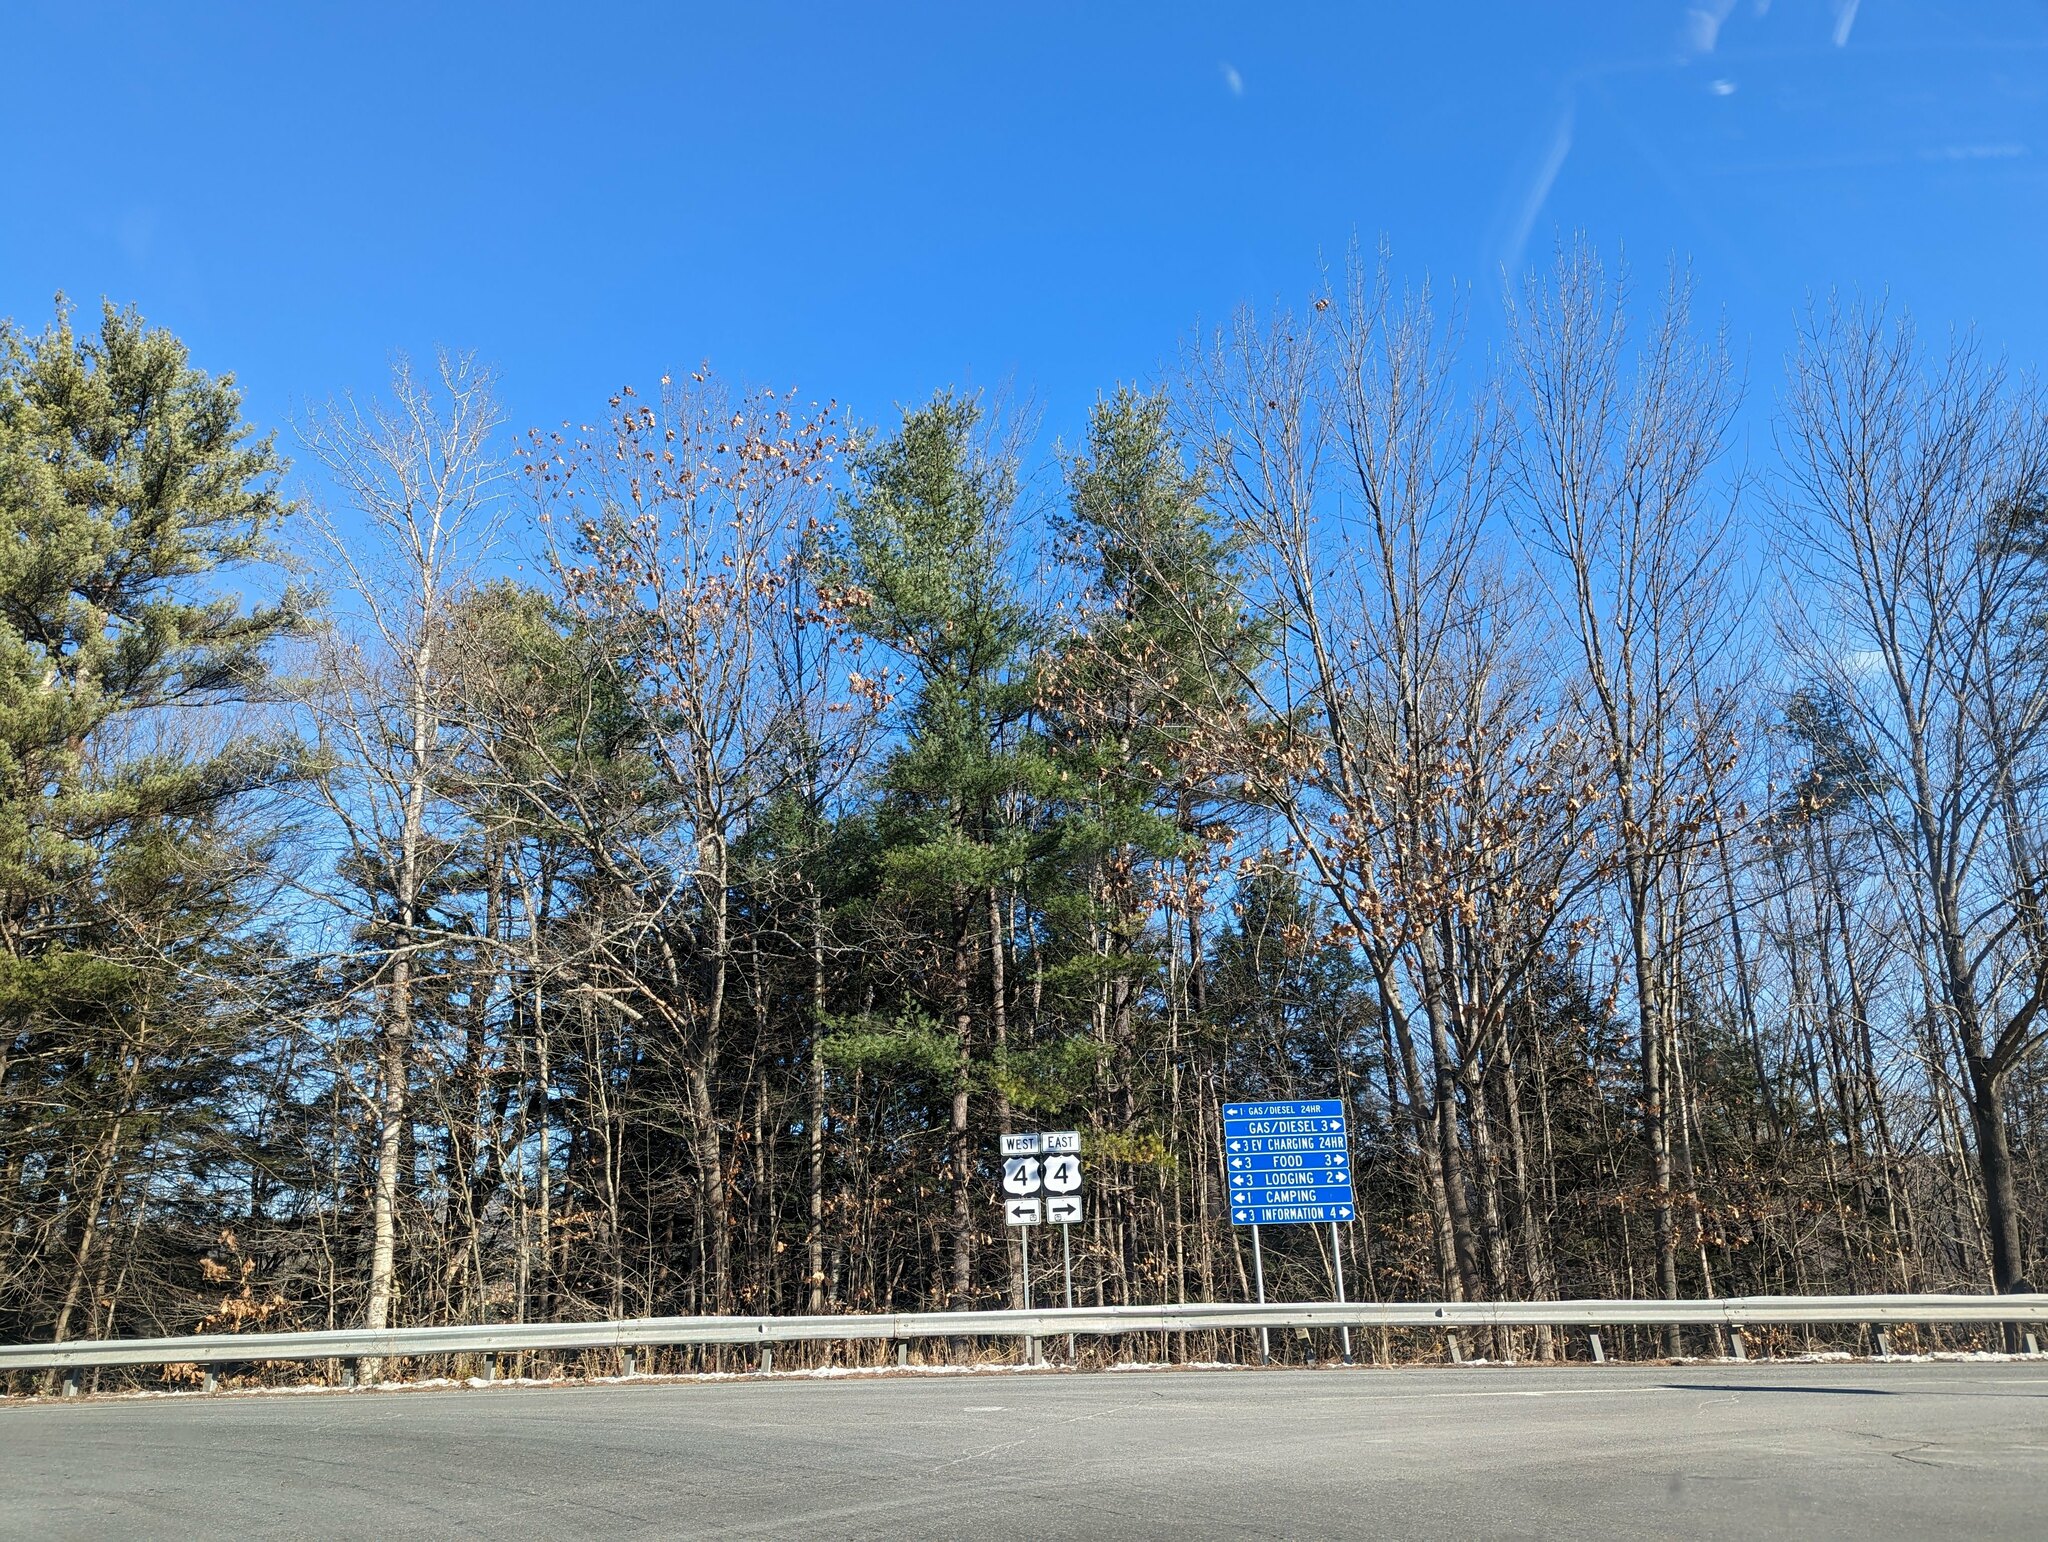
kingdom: Plantae
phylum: Tracheophyta
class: Pinopsida
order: Pinales
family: Pinaceae
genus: Pinus
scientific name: Pinus strobus
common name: Weymouth pine
